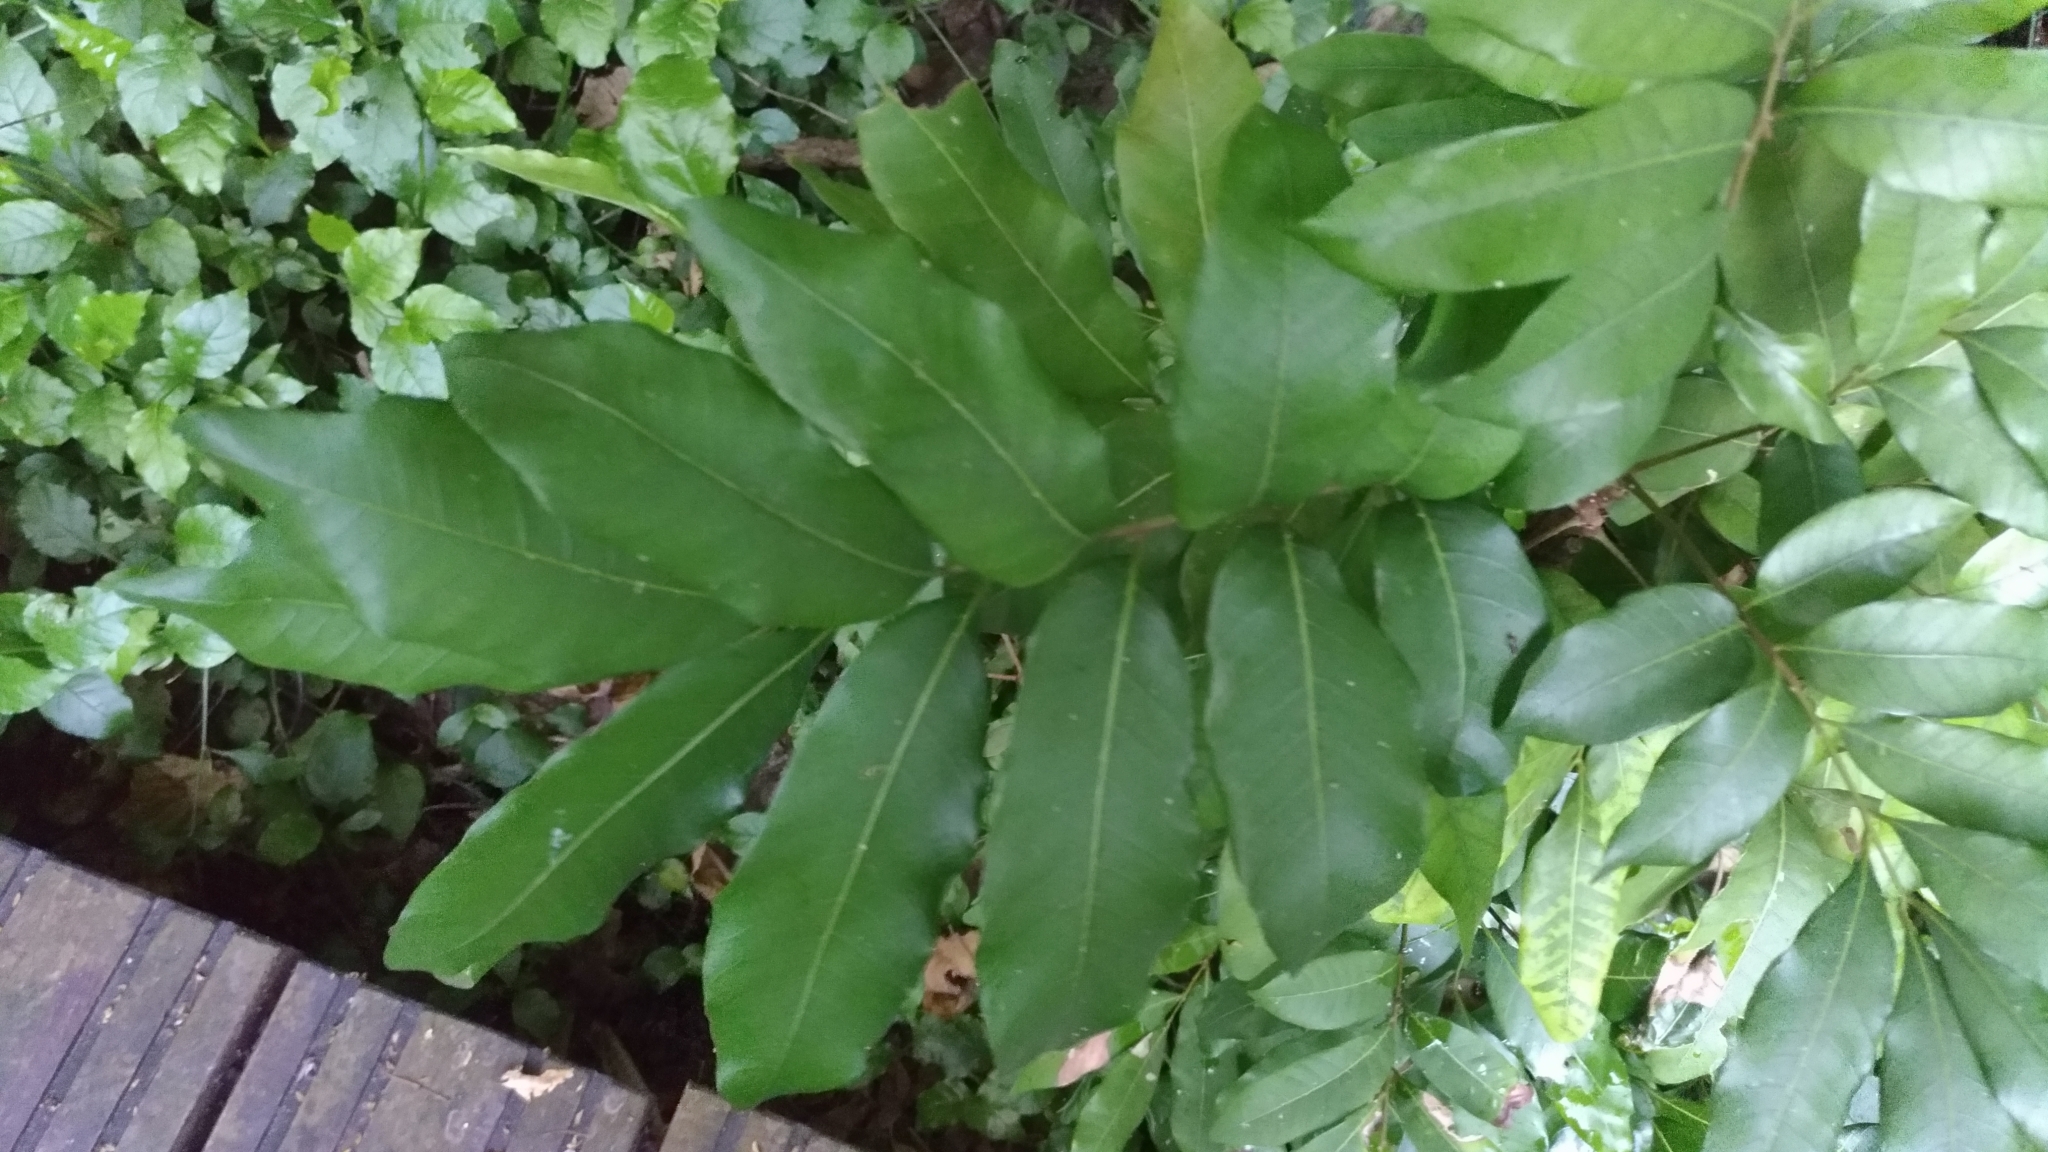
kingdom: Plantae
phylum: Tracheophyta
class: Magnoliopsida
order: Sapindales
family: Sapindaceae
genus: Dimocarpus
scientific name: Dimocarpus longan
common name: Longan
